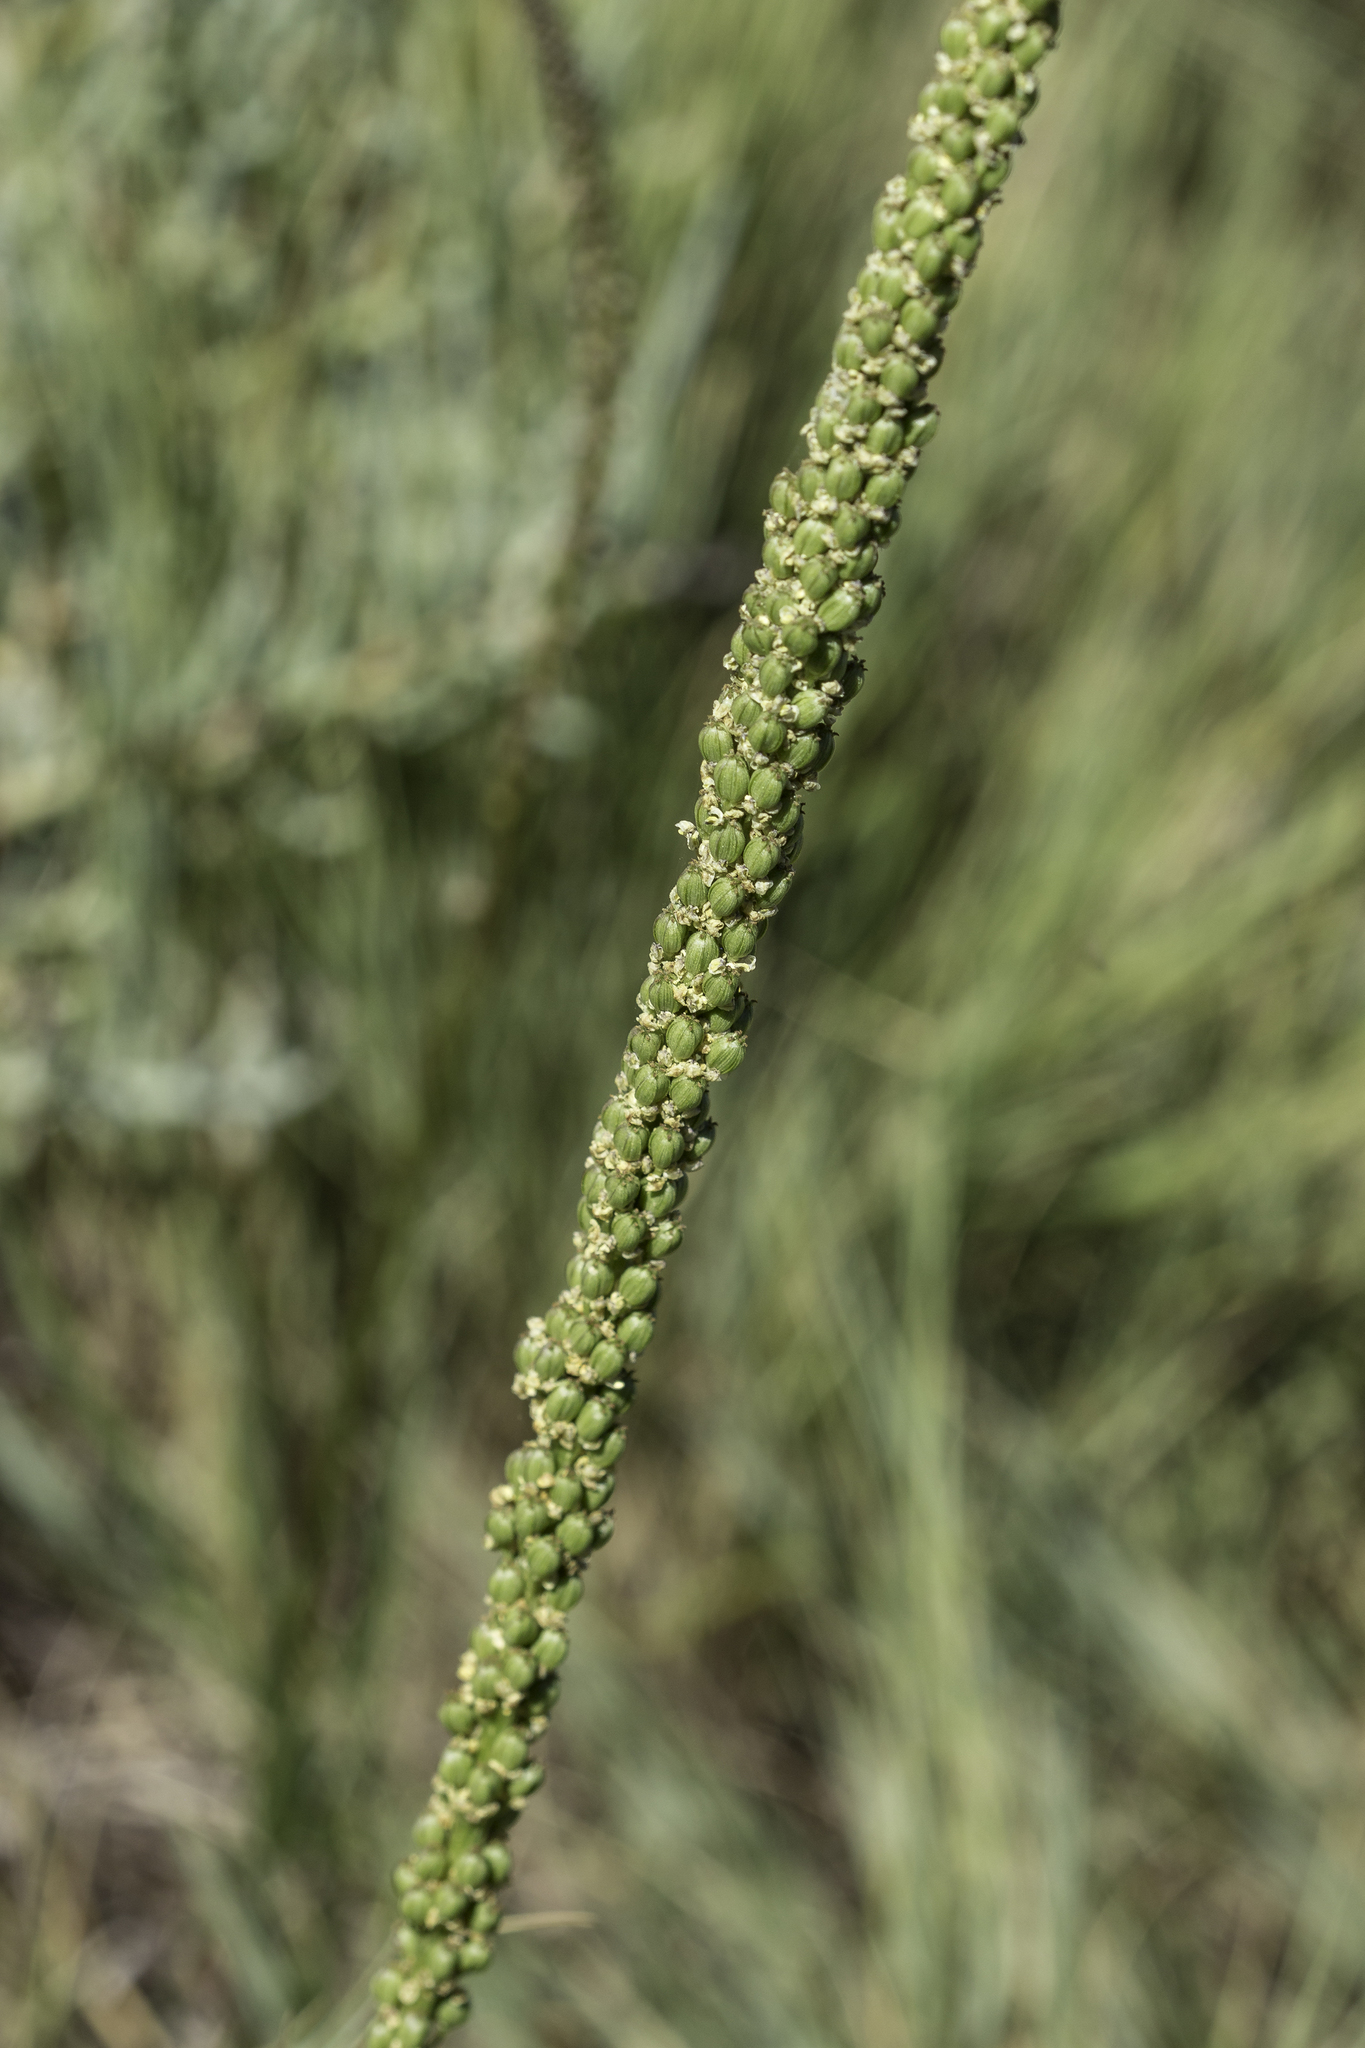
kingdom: Plantae
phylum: Tracheophyta
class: Liliopsida
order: Alismatales
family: Juncaginaceae
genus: Triglochin
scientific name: Triglochin maritima
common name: Sea arrowgrass
